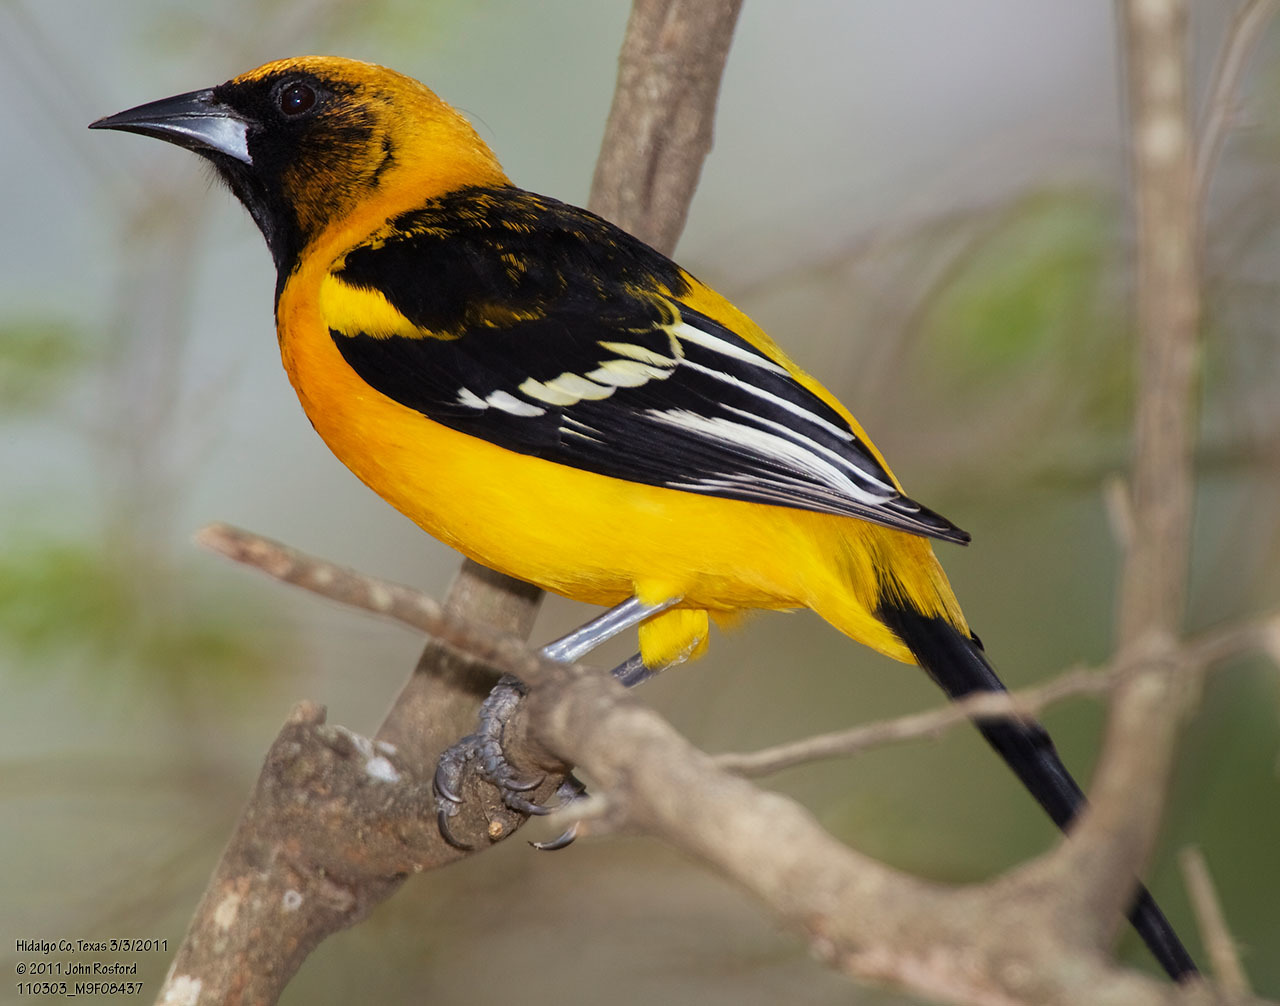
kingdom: Animalia
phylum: Chordata
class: Aves
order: Passeriformes
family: Icteridae
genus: Icterus
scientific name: Icterus
